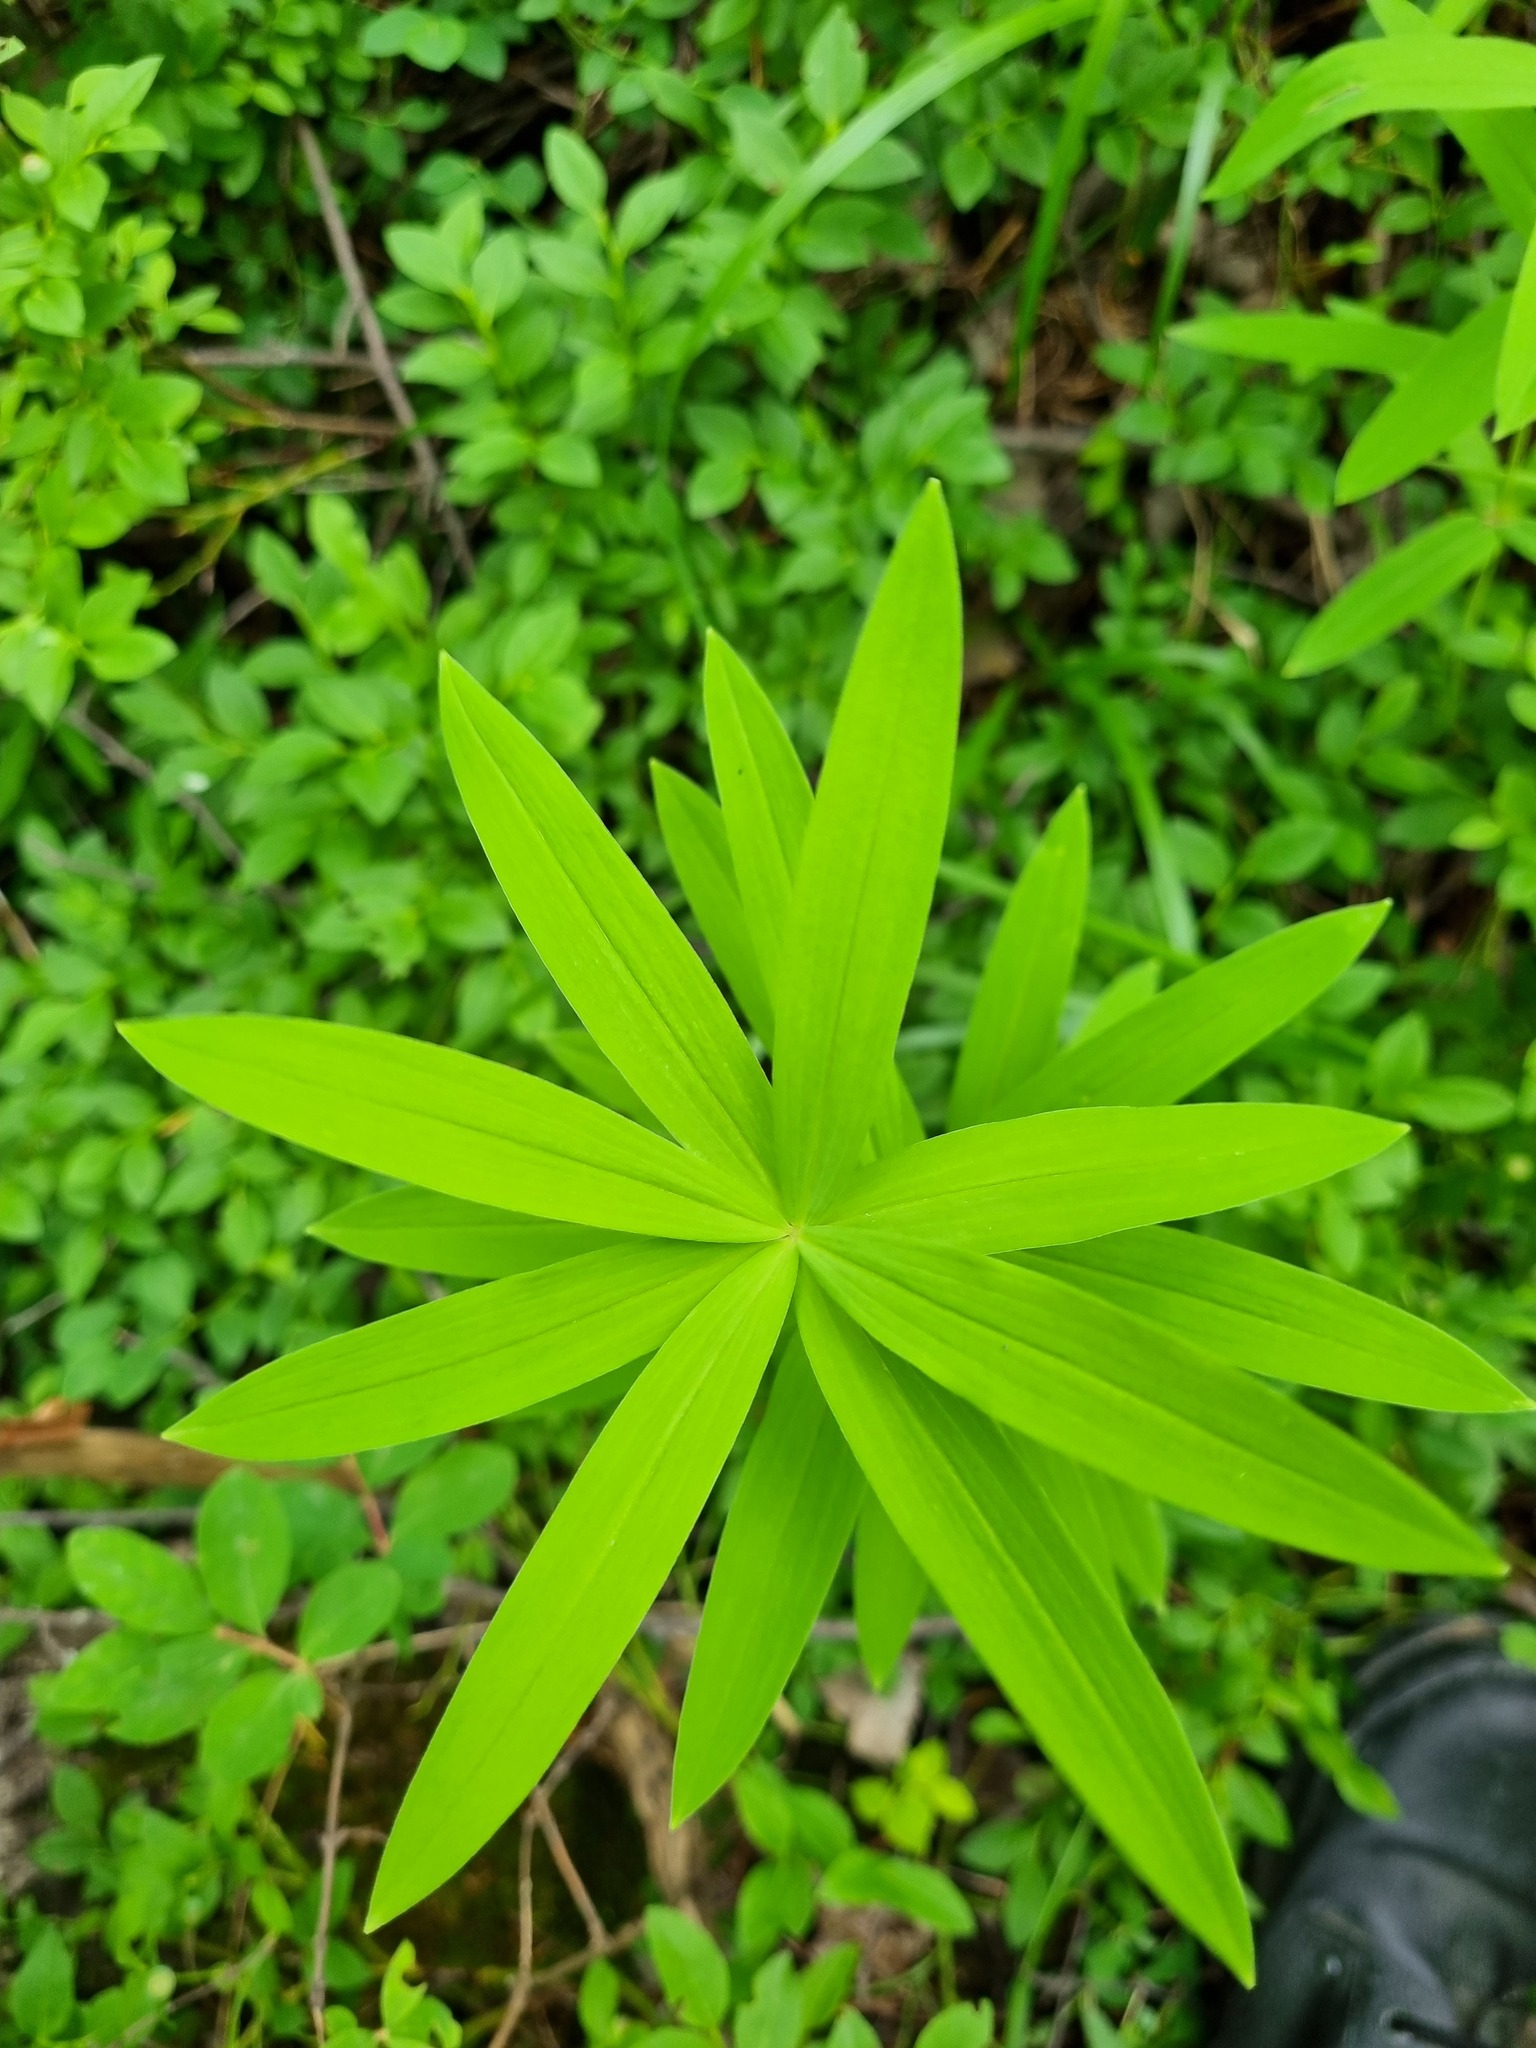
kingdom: Plantae
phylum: Tracheophyta
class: Liliopsida
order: Asparagales
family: Asparagaceae
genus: Polygonatum
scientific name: Polygonatum verticillatum
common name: Whorled solomon's-seal
